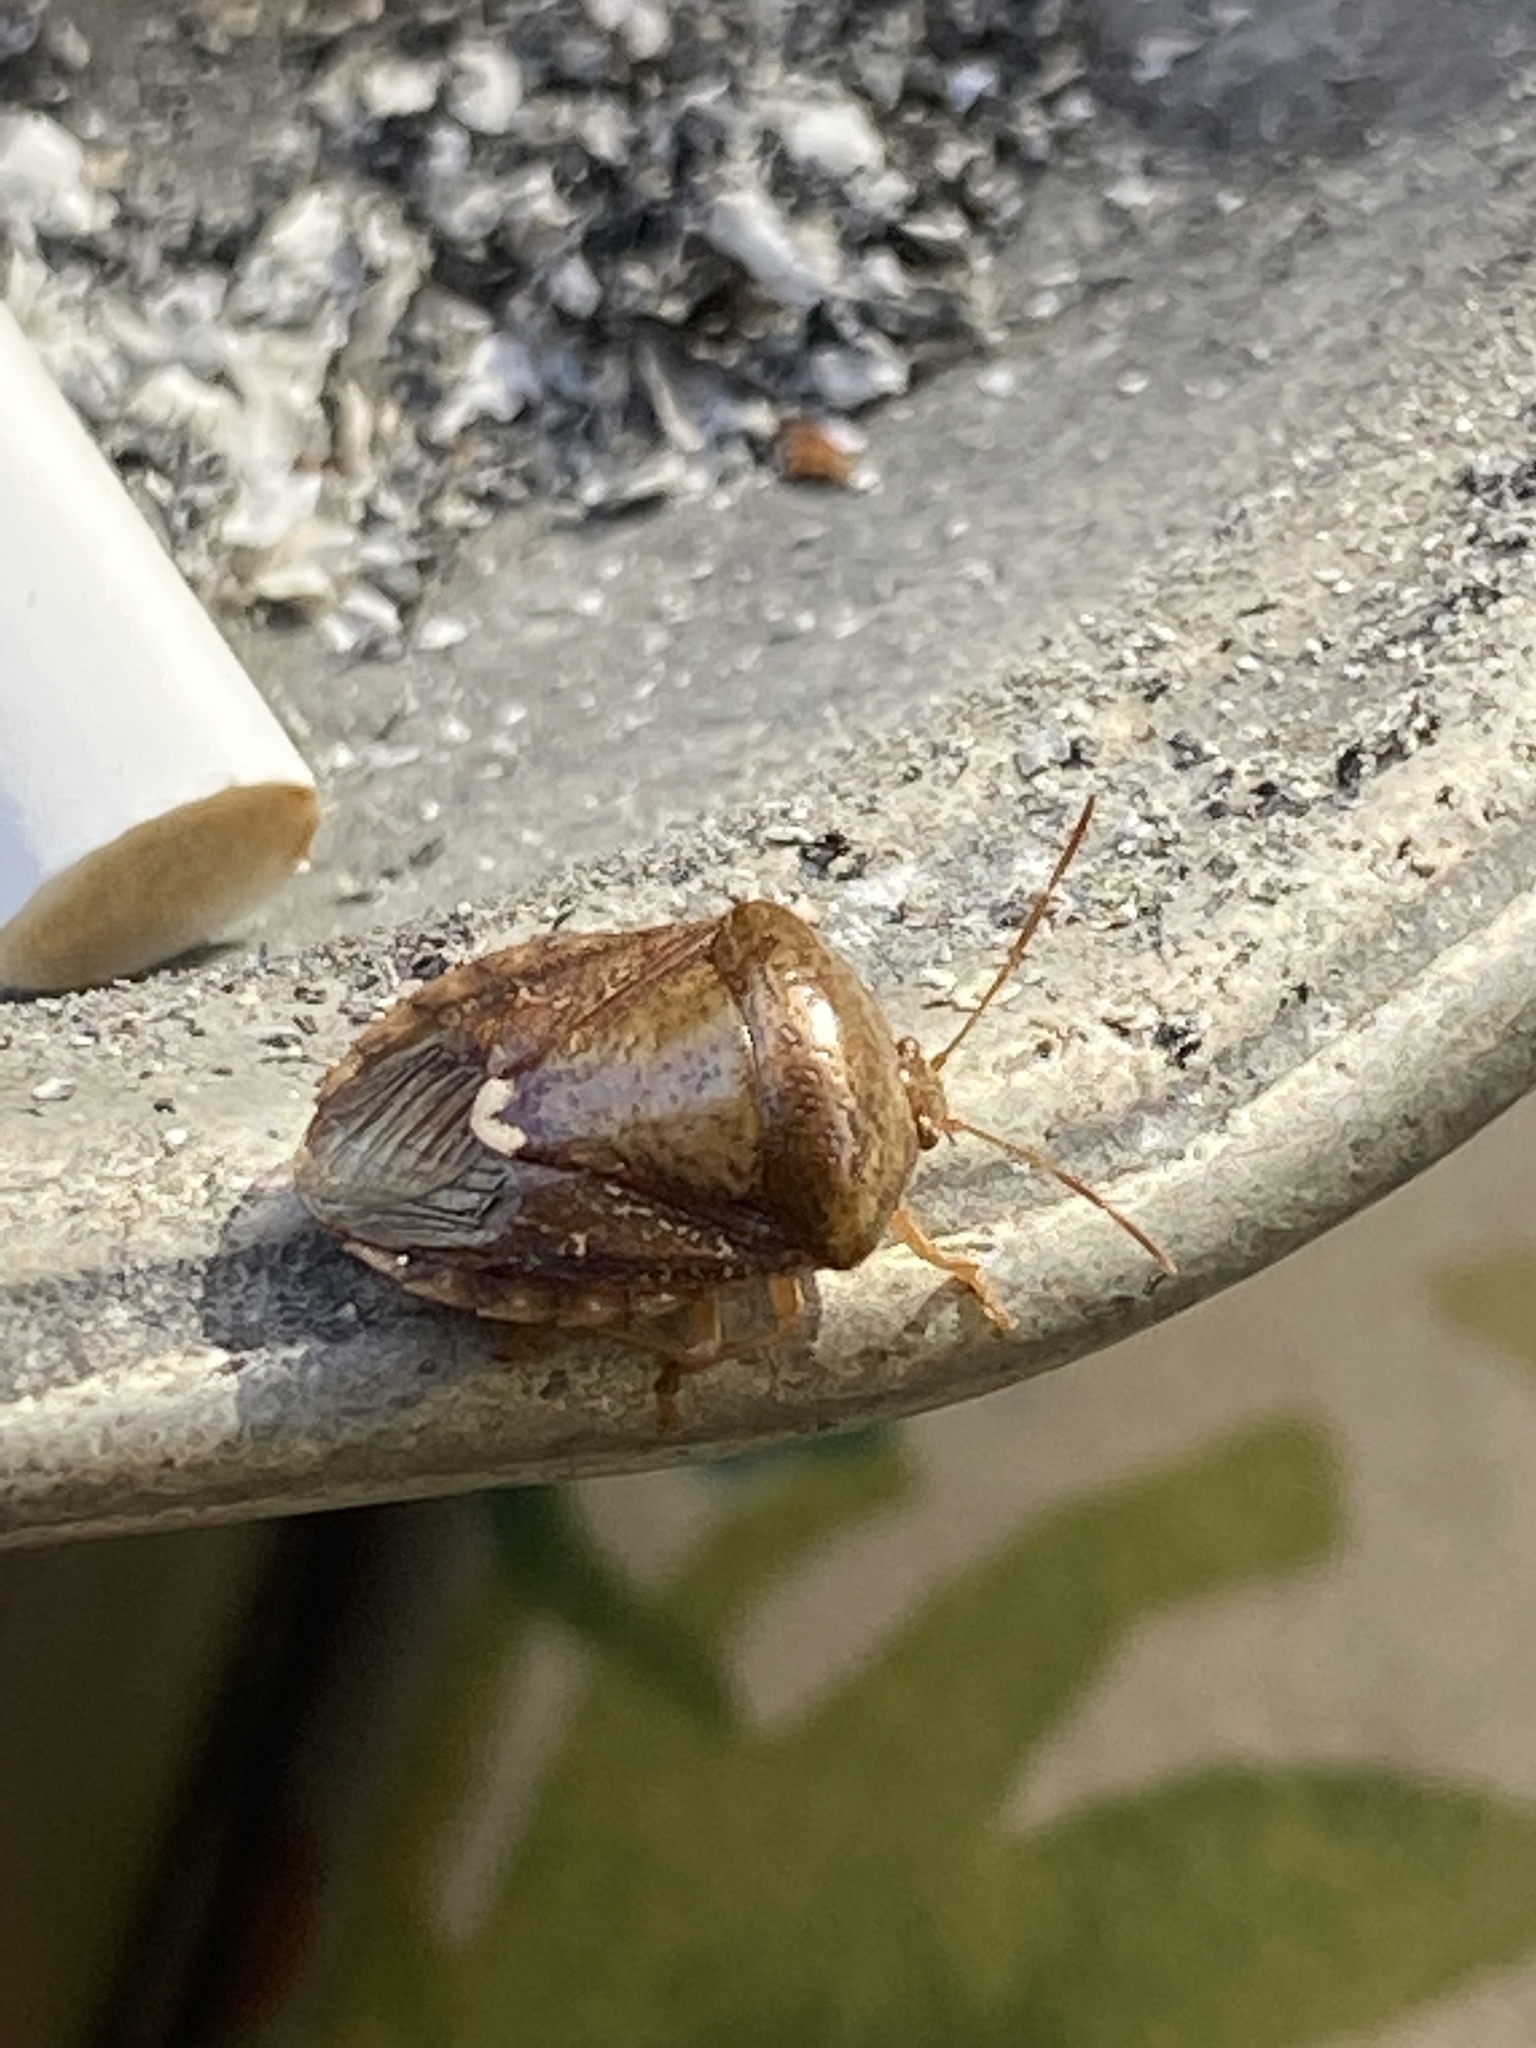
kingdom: Animalia
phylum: Arthropoda
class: Insecta
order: Hemiptera
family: Pentatomidae
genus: Edessa
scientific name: Edessa bifida
